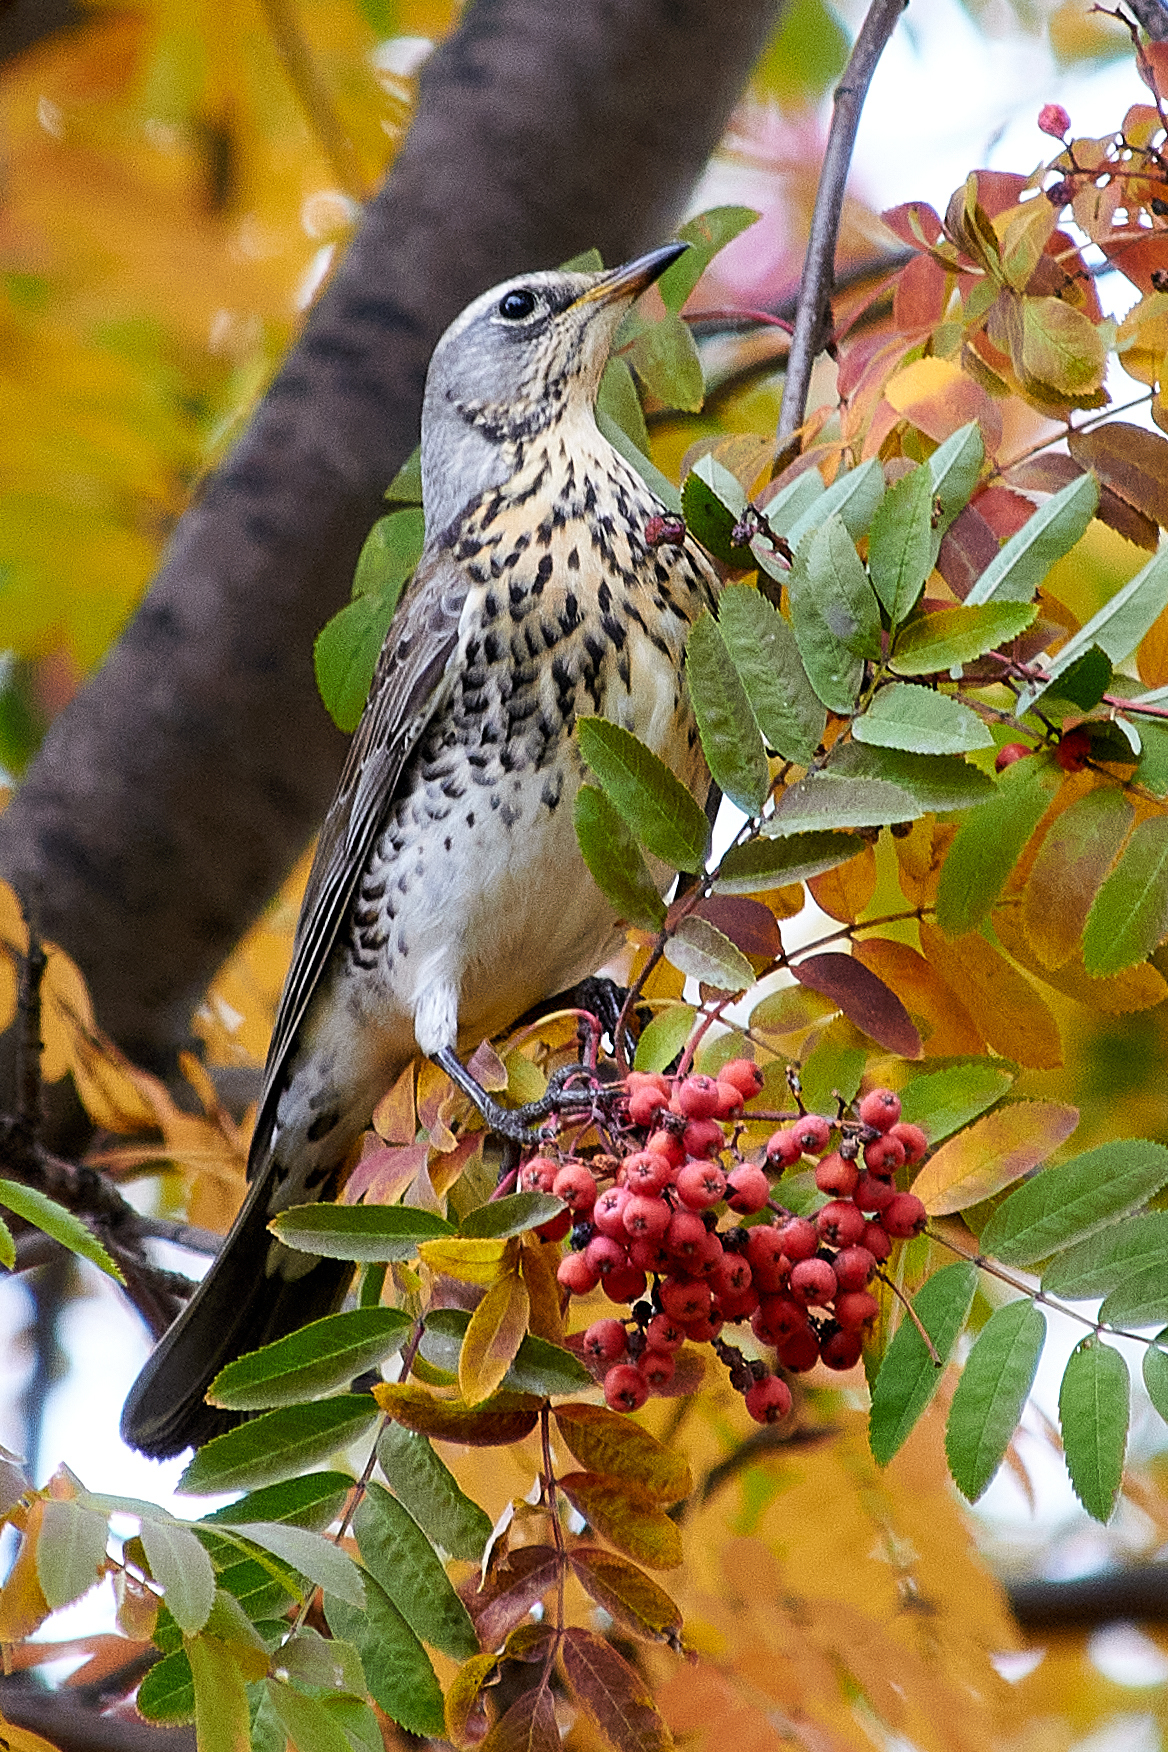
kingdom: Animalia
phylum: Chordata
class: Aves
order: Passeriformes
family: Turdidae
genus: Turdus
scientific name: Turdus pilaris
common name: Fieldfare
